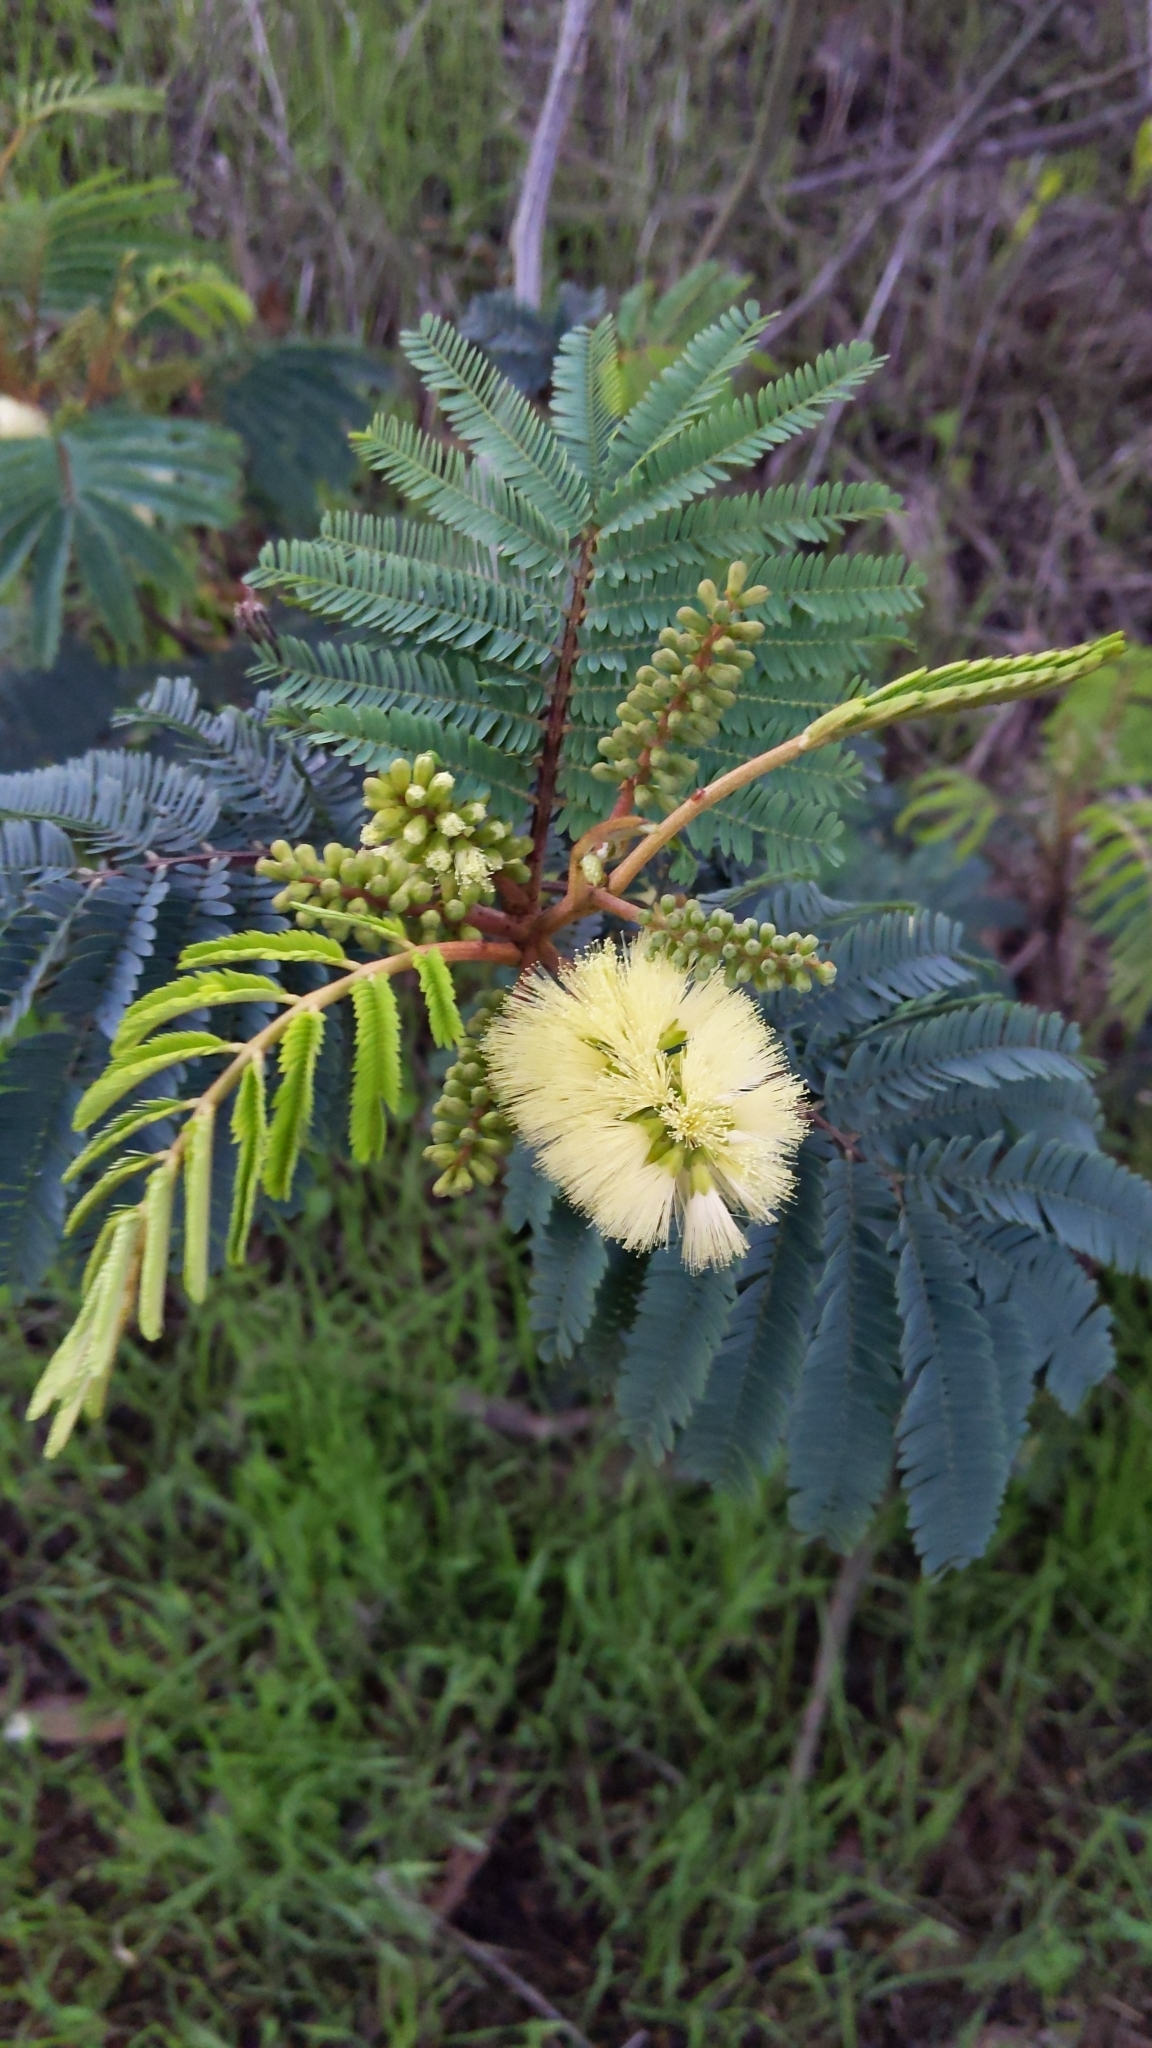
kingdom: Plantae
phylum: Tracheophyta
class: Magnoliopsida
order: Fabales
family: Fabaceae
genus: Paraserianthes
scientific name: Paraserianthes lophantha
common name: Plume albizia
